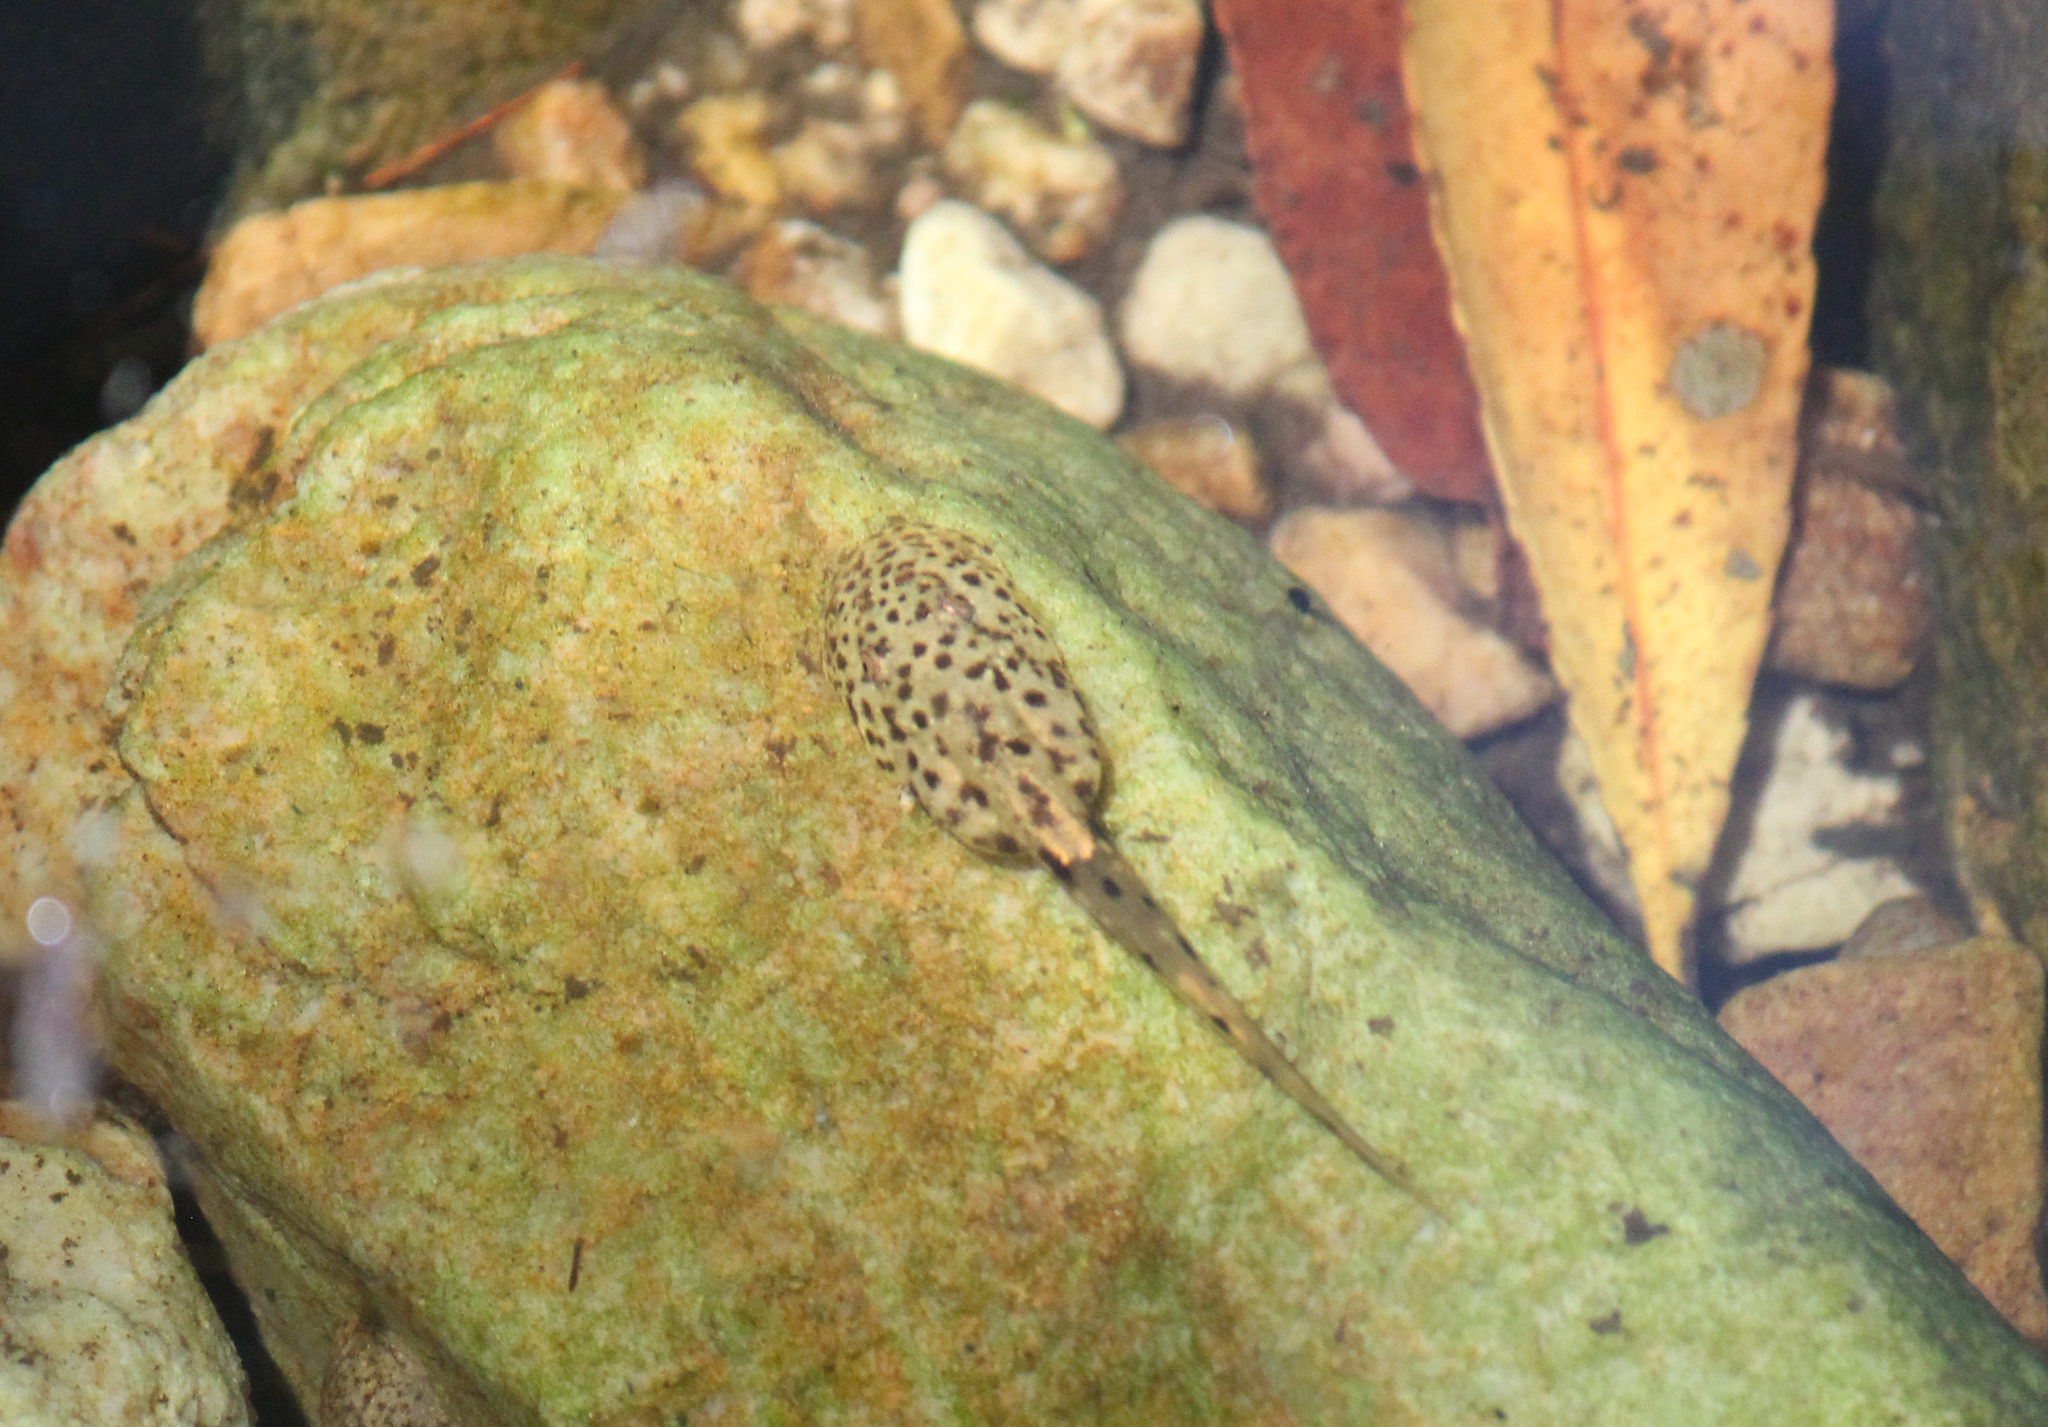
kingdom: Animalia
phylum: Chordata
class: Amphibia
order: Anura
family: Heleophrynidae
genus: Heleophryne
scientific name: Heleophryne purcelli
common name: Purcell's ghost frog
